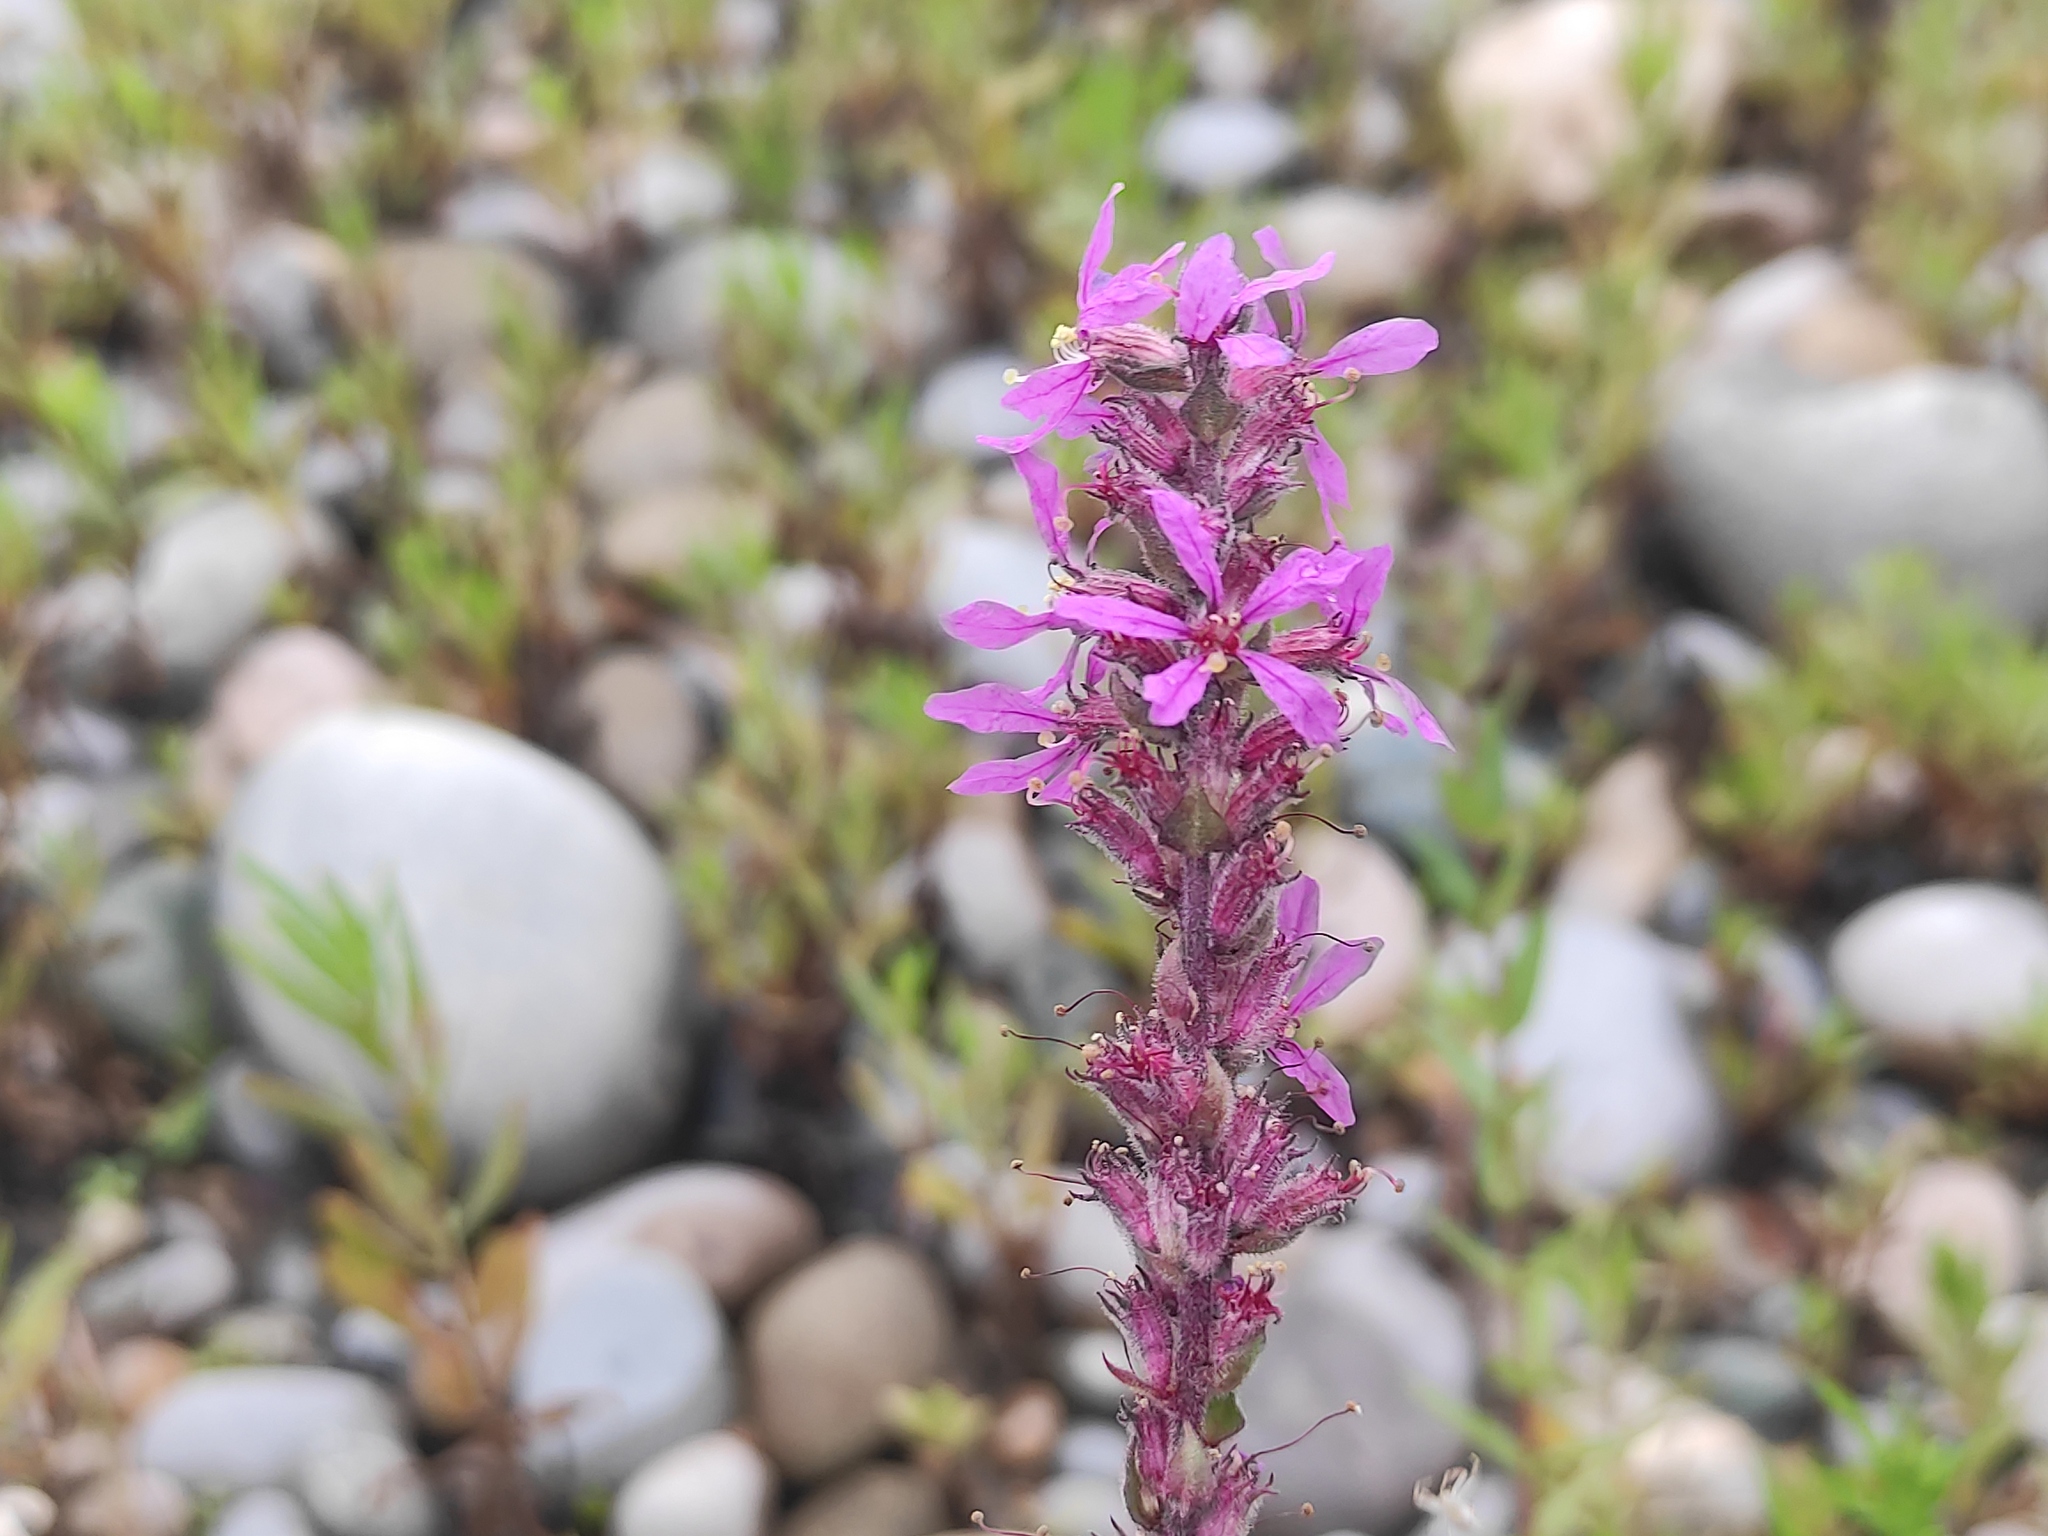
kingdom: Plantae
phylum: Tracheophyta
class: Magnoliopsida
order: Myrtales
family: Lythraceae
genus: Lythrum
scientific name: Lythrum salicaria
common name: Purple loosestrife
